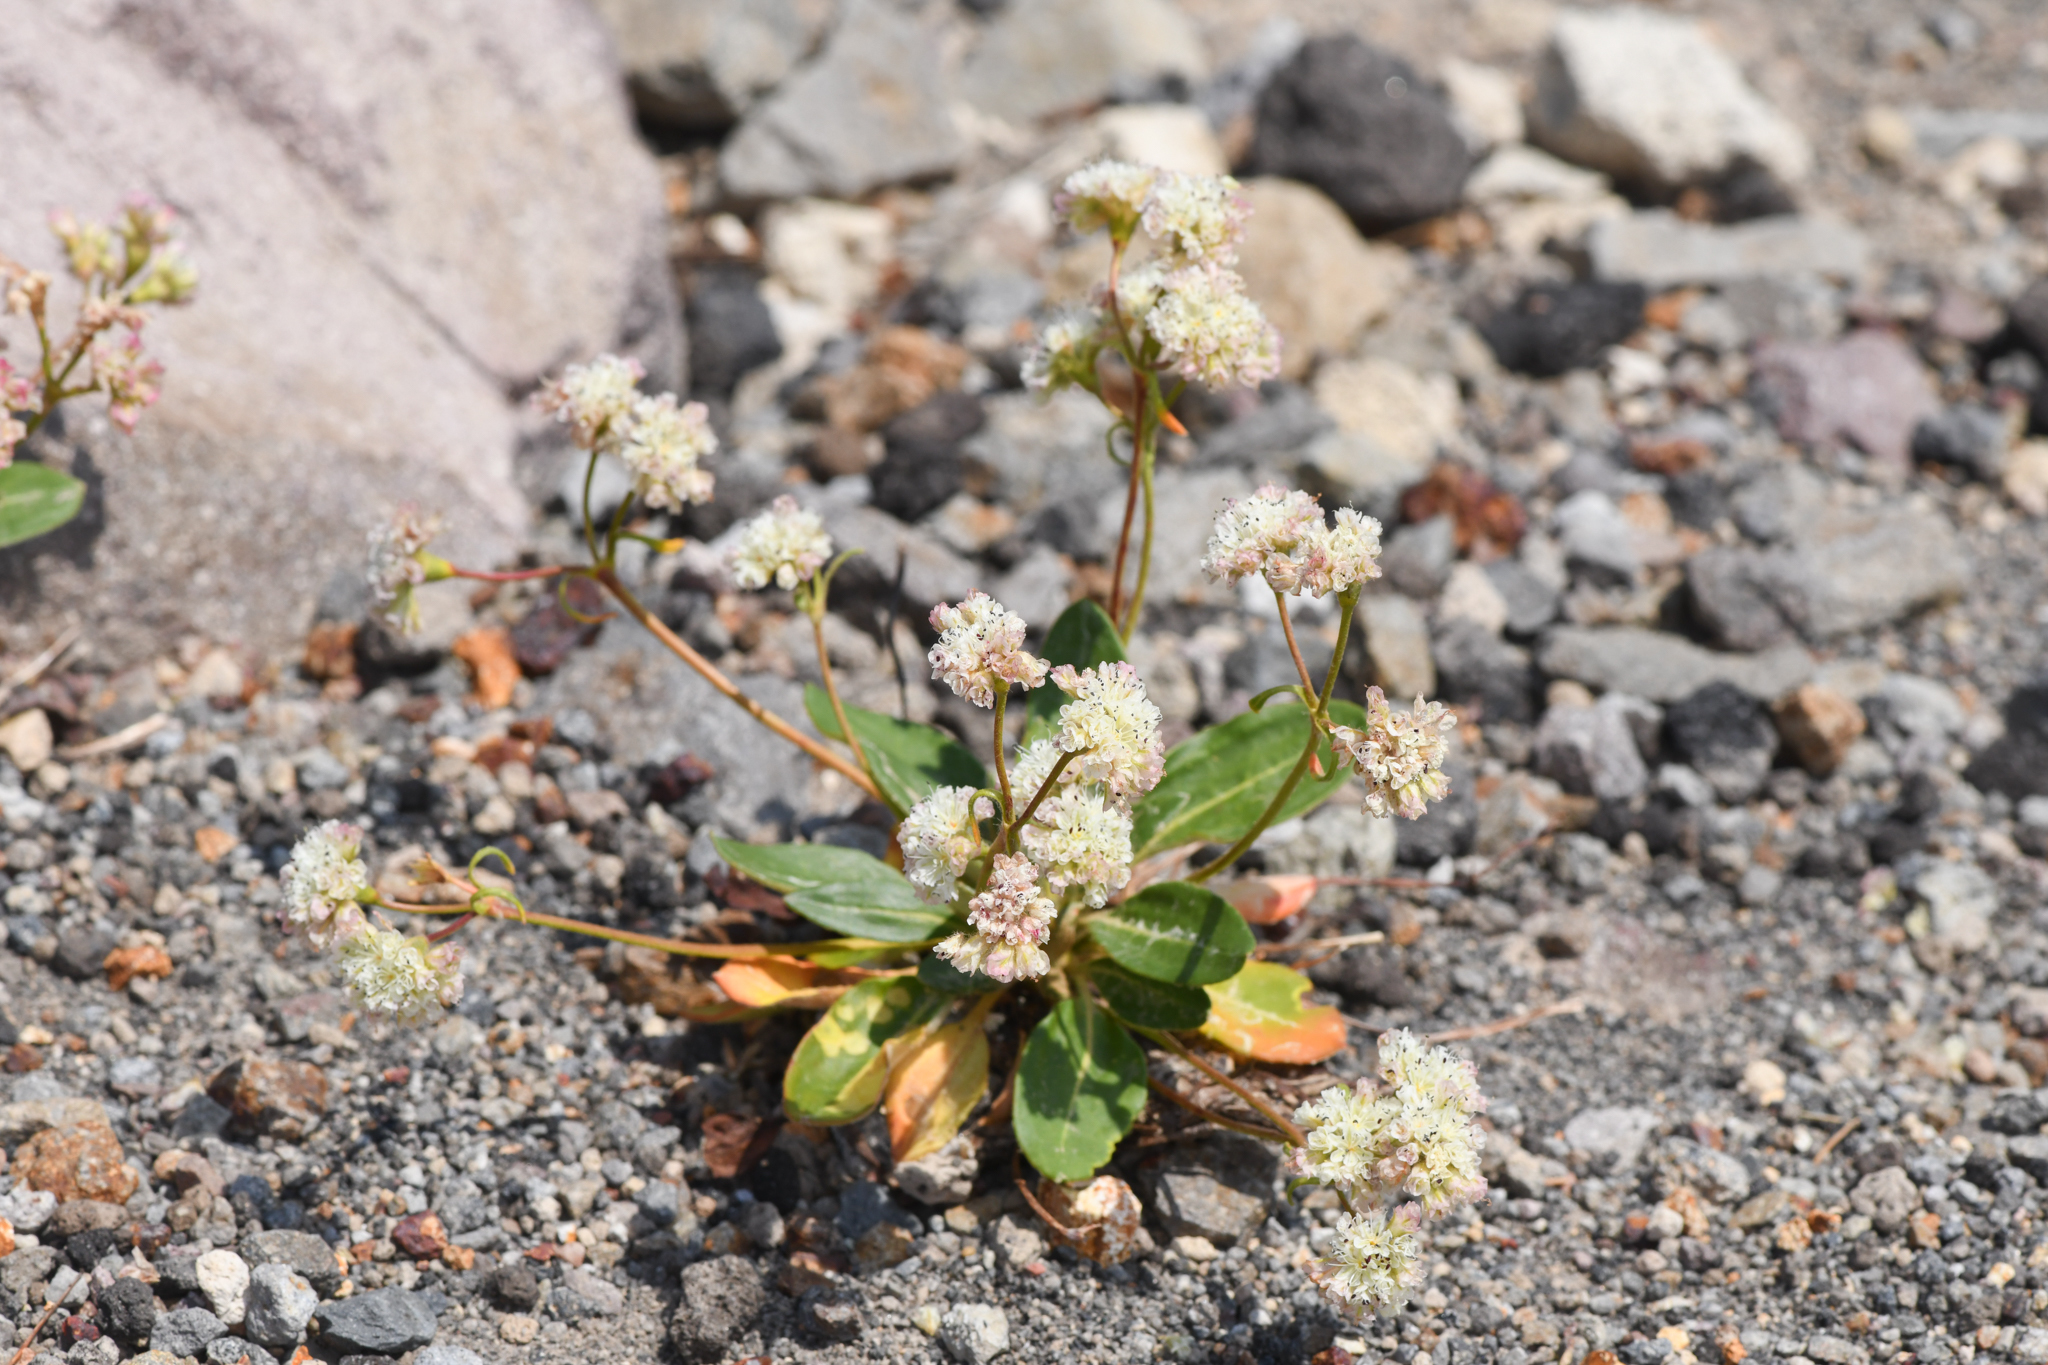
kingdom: Plantae
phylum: Tracheophyta
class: Magnoliopsida
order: Caryophyllales
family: Polygonaceae
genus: Eriogonum
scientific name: Eriogonum pyrolifolium
